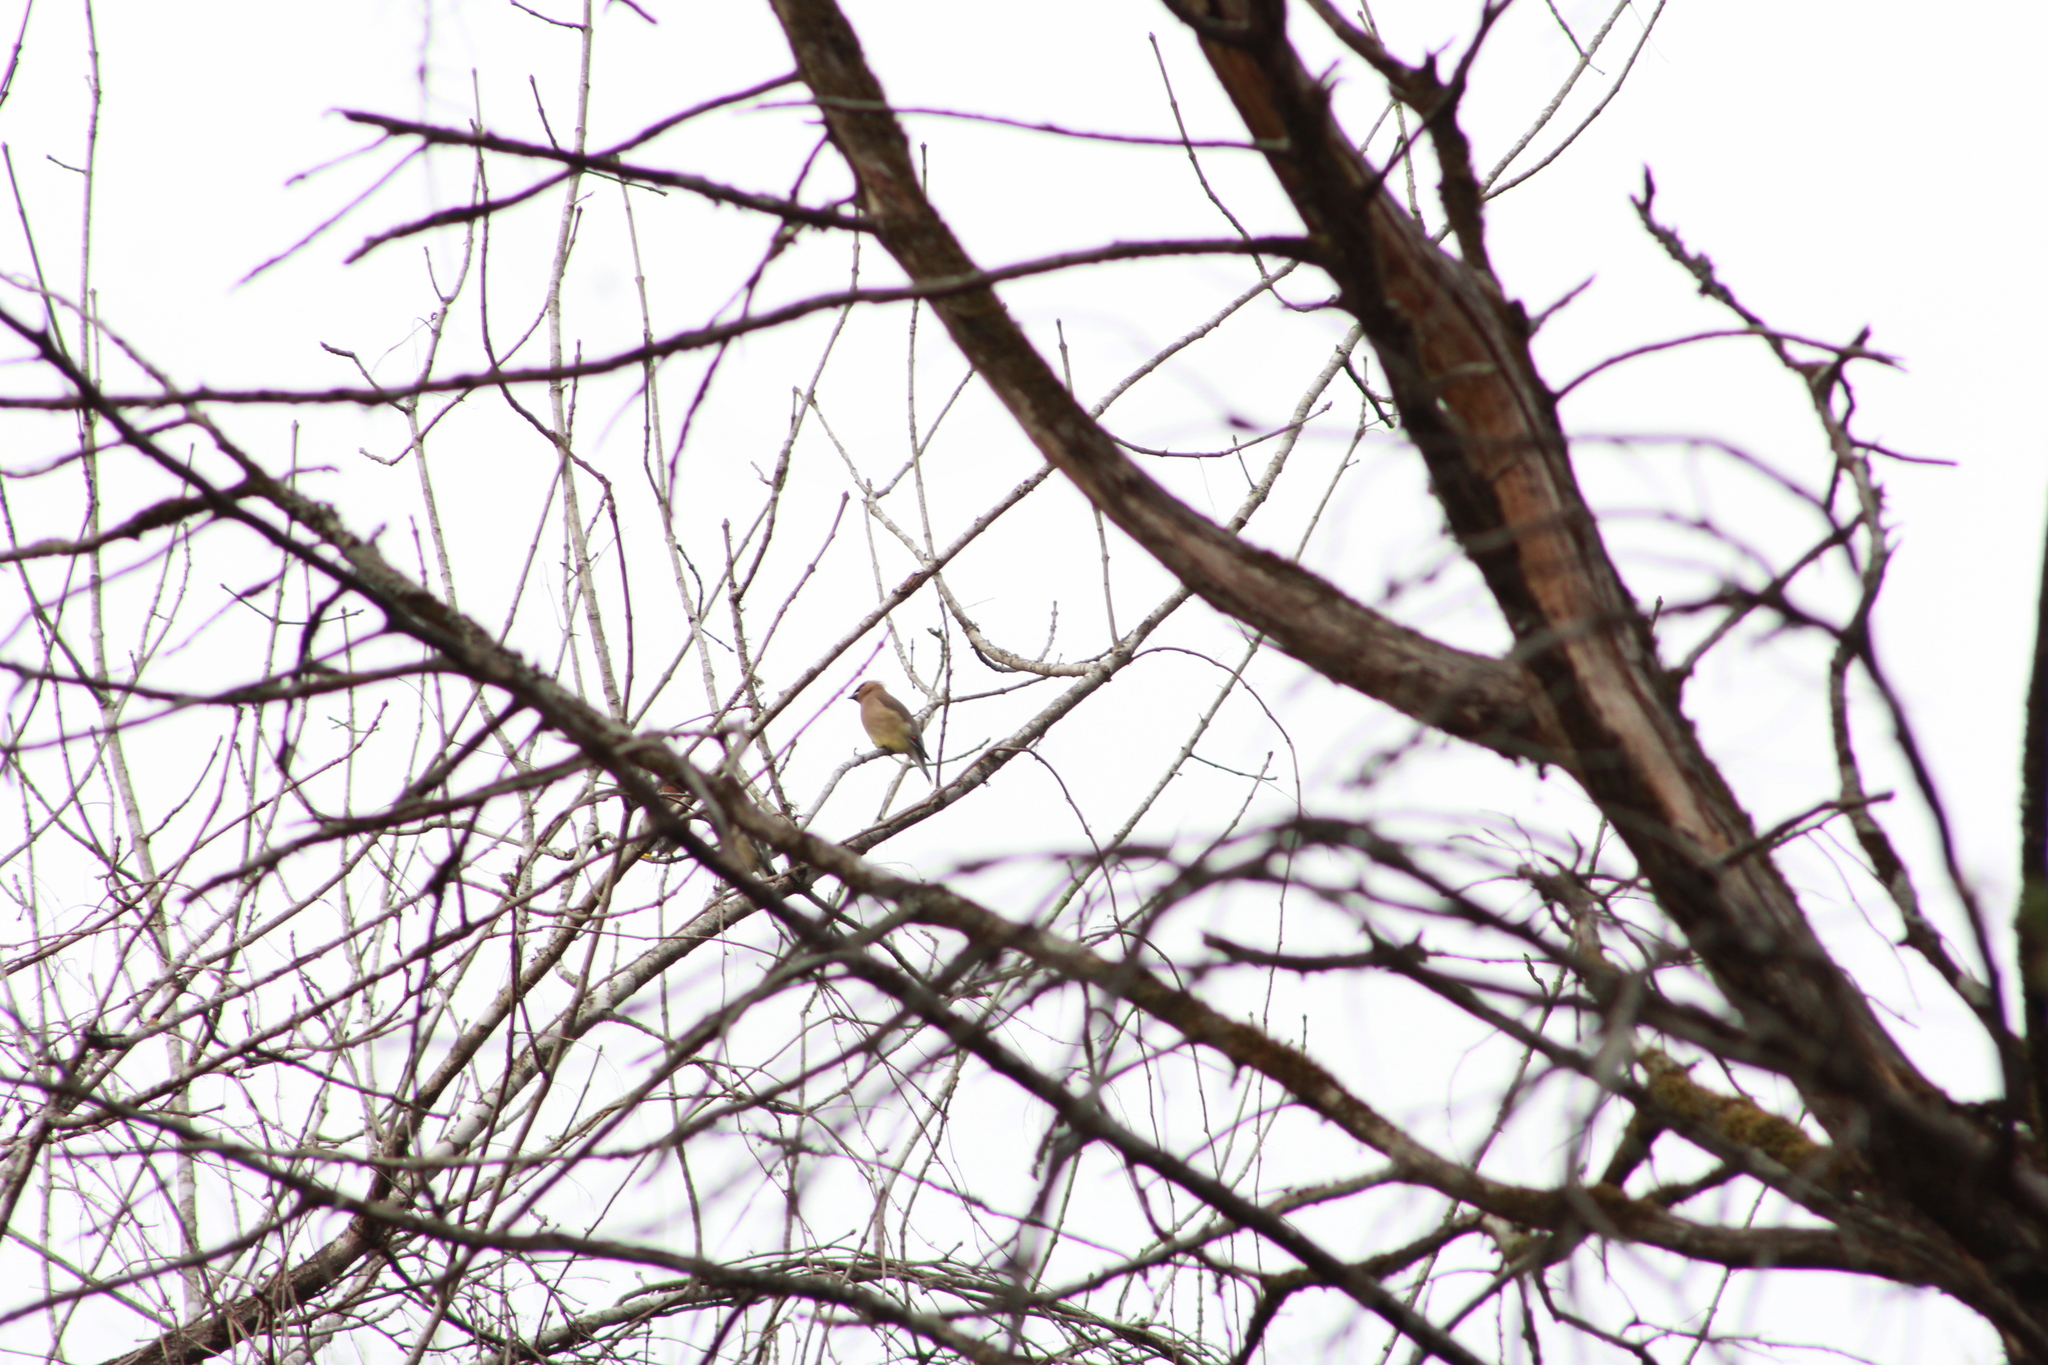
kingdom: Animalia
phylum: Chordata
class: Aves
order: Passeriformes
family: Bombycillidae
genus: Bombycilla
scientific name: Bombycilla cedrorum
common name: Cedar waxwing
